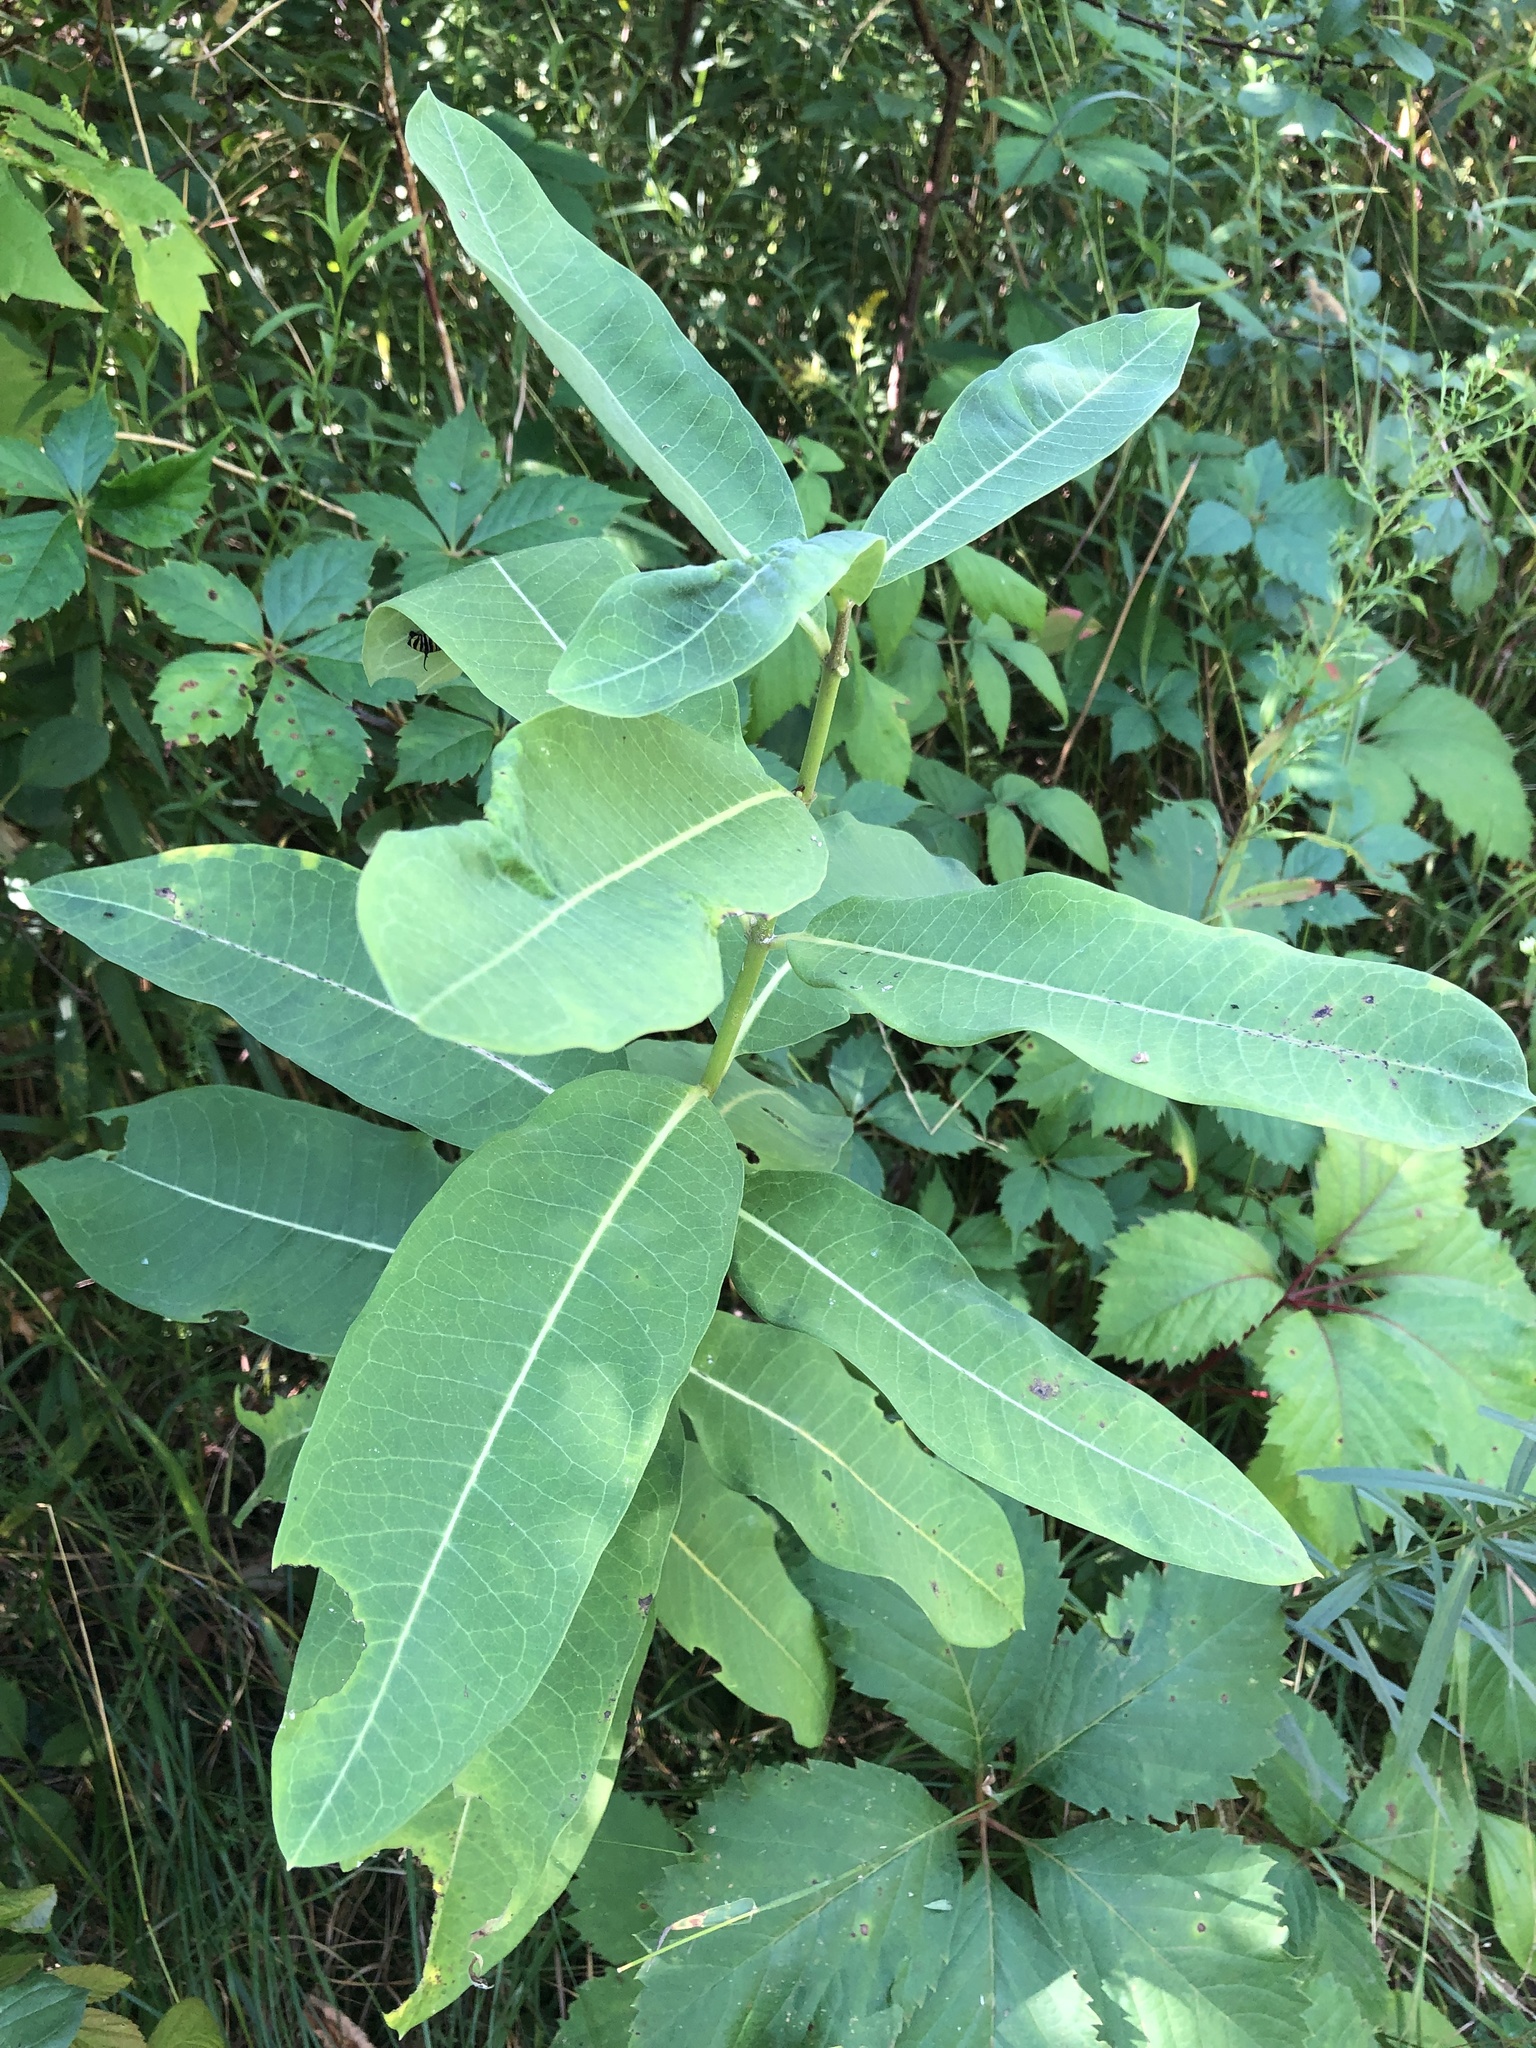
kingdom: Plantae
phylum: Tracheophyta
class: Magnoliopsida
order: Gentianales
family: Apocynaceae
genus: Asclepias
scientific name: Asclepias syriaca
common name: Common milkweed
